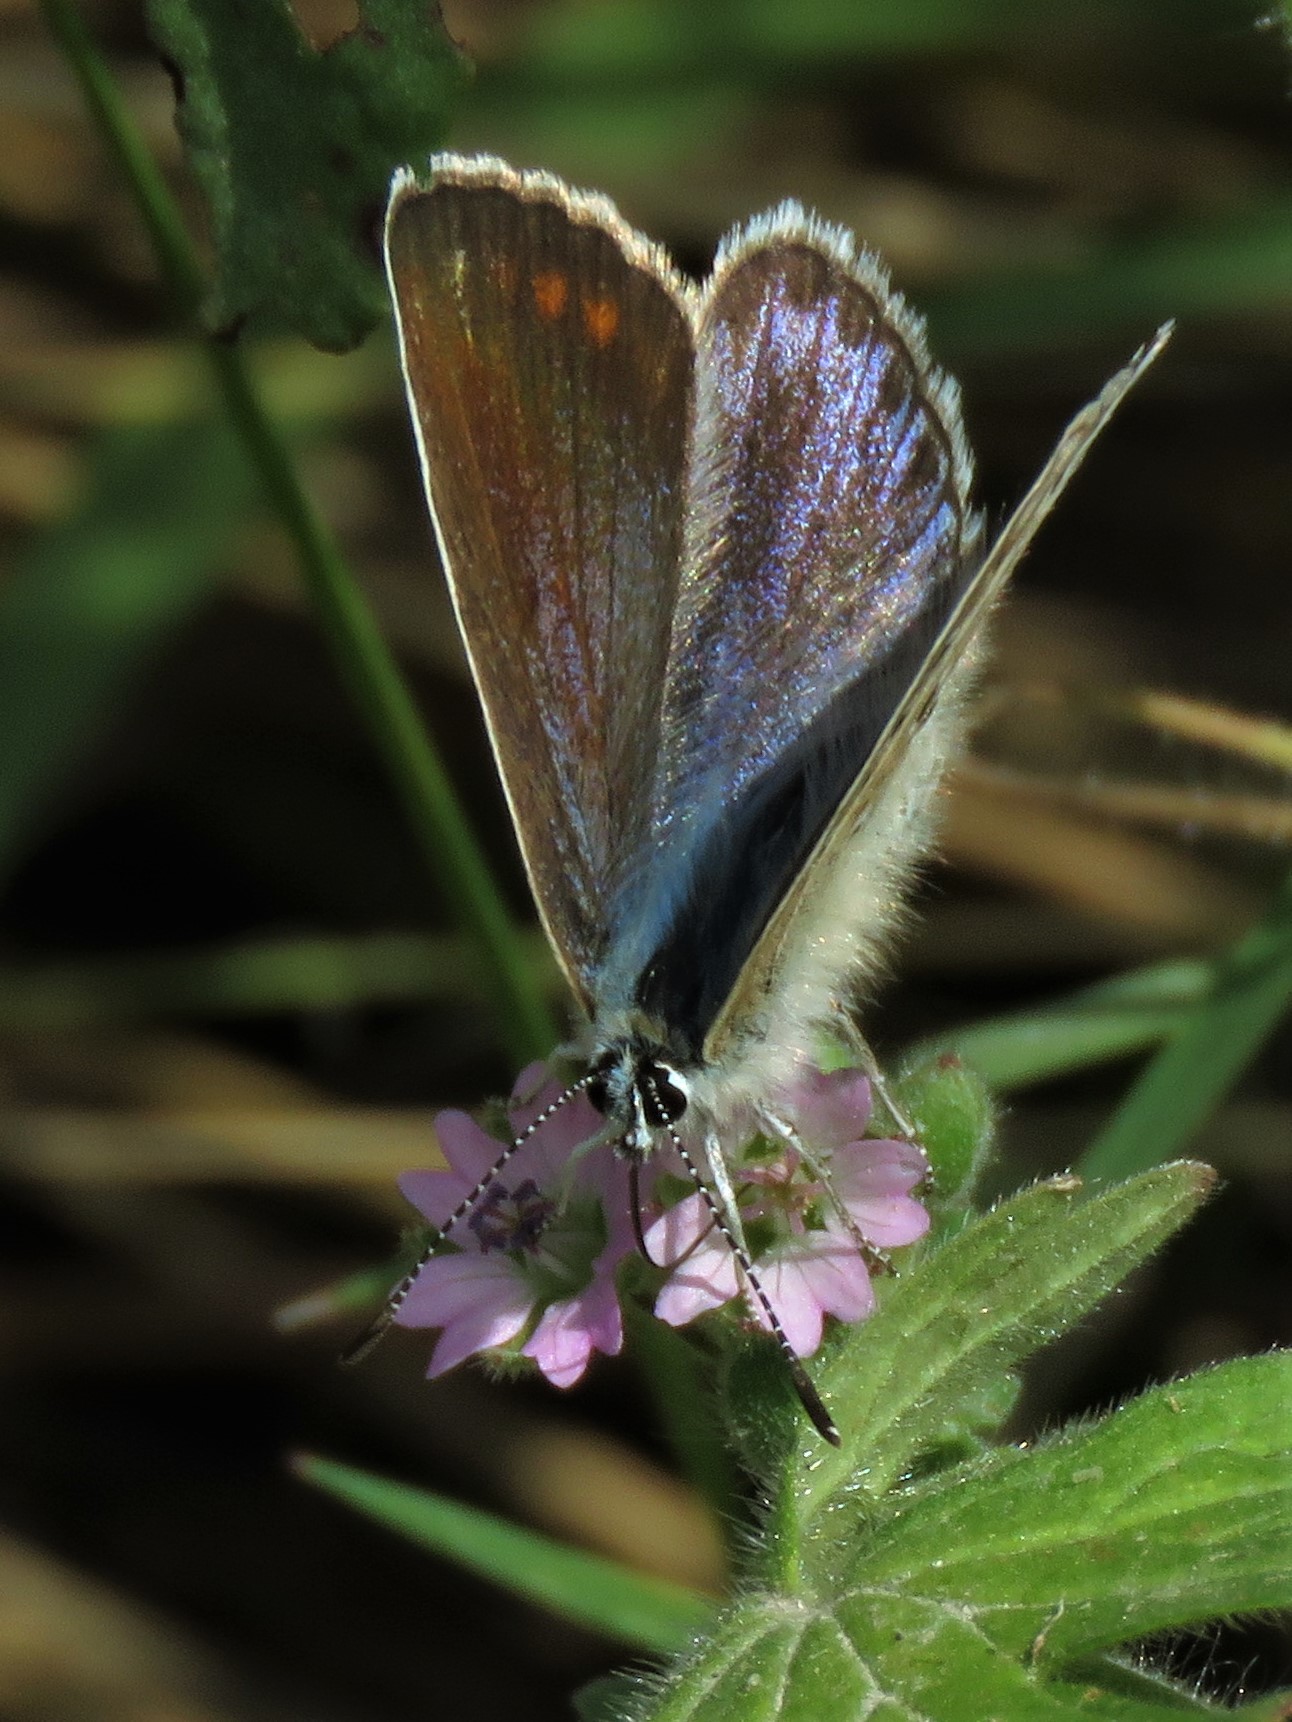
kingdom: Animalia
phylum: Arthropoda
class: Insecta
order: Lepidoptera
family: Lycaenidae
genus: Polyommatus
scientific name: Polyommatus icarus
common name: Common blue
